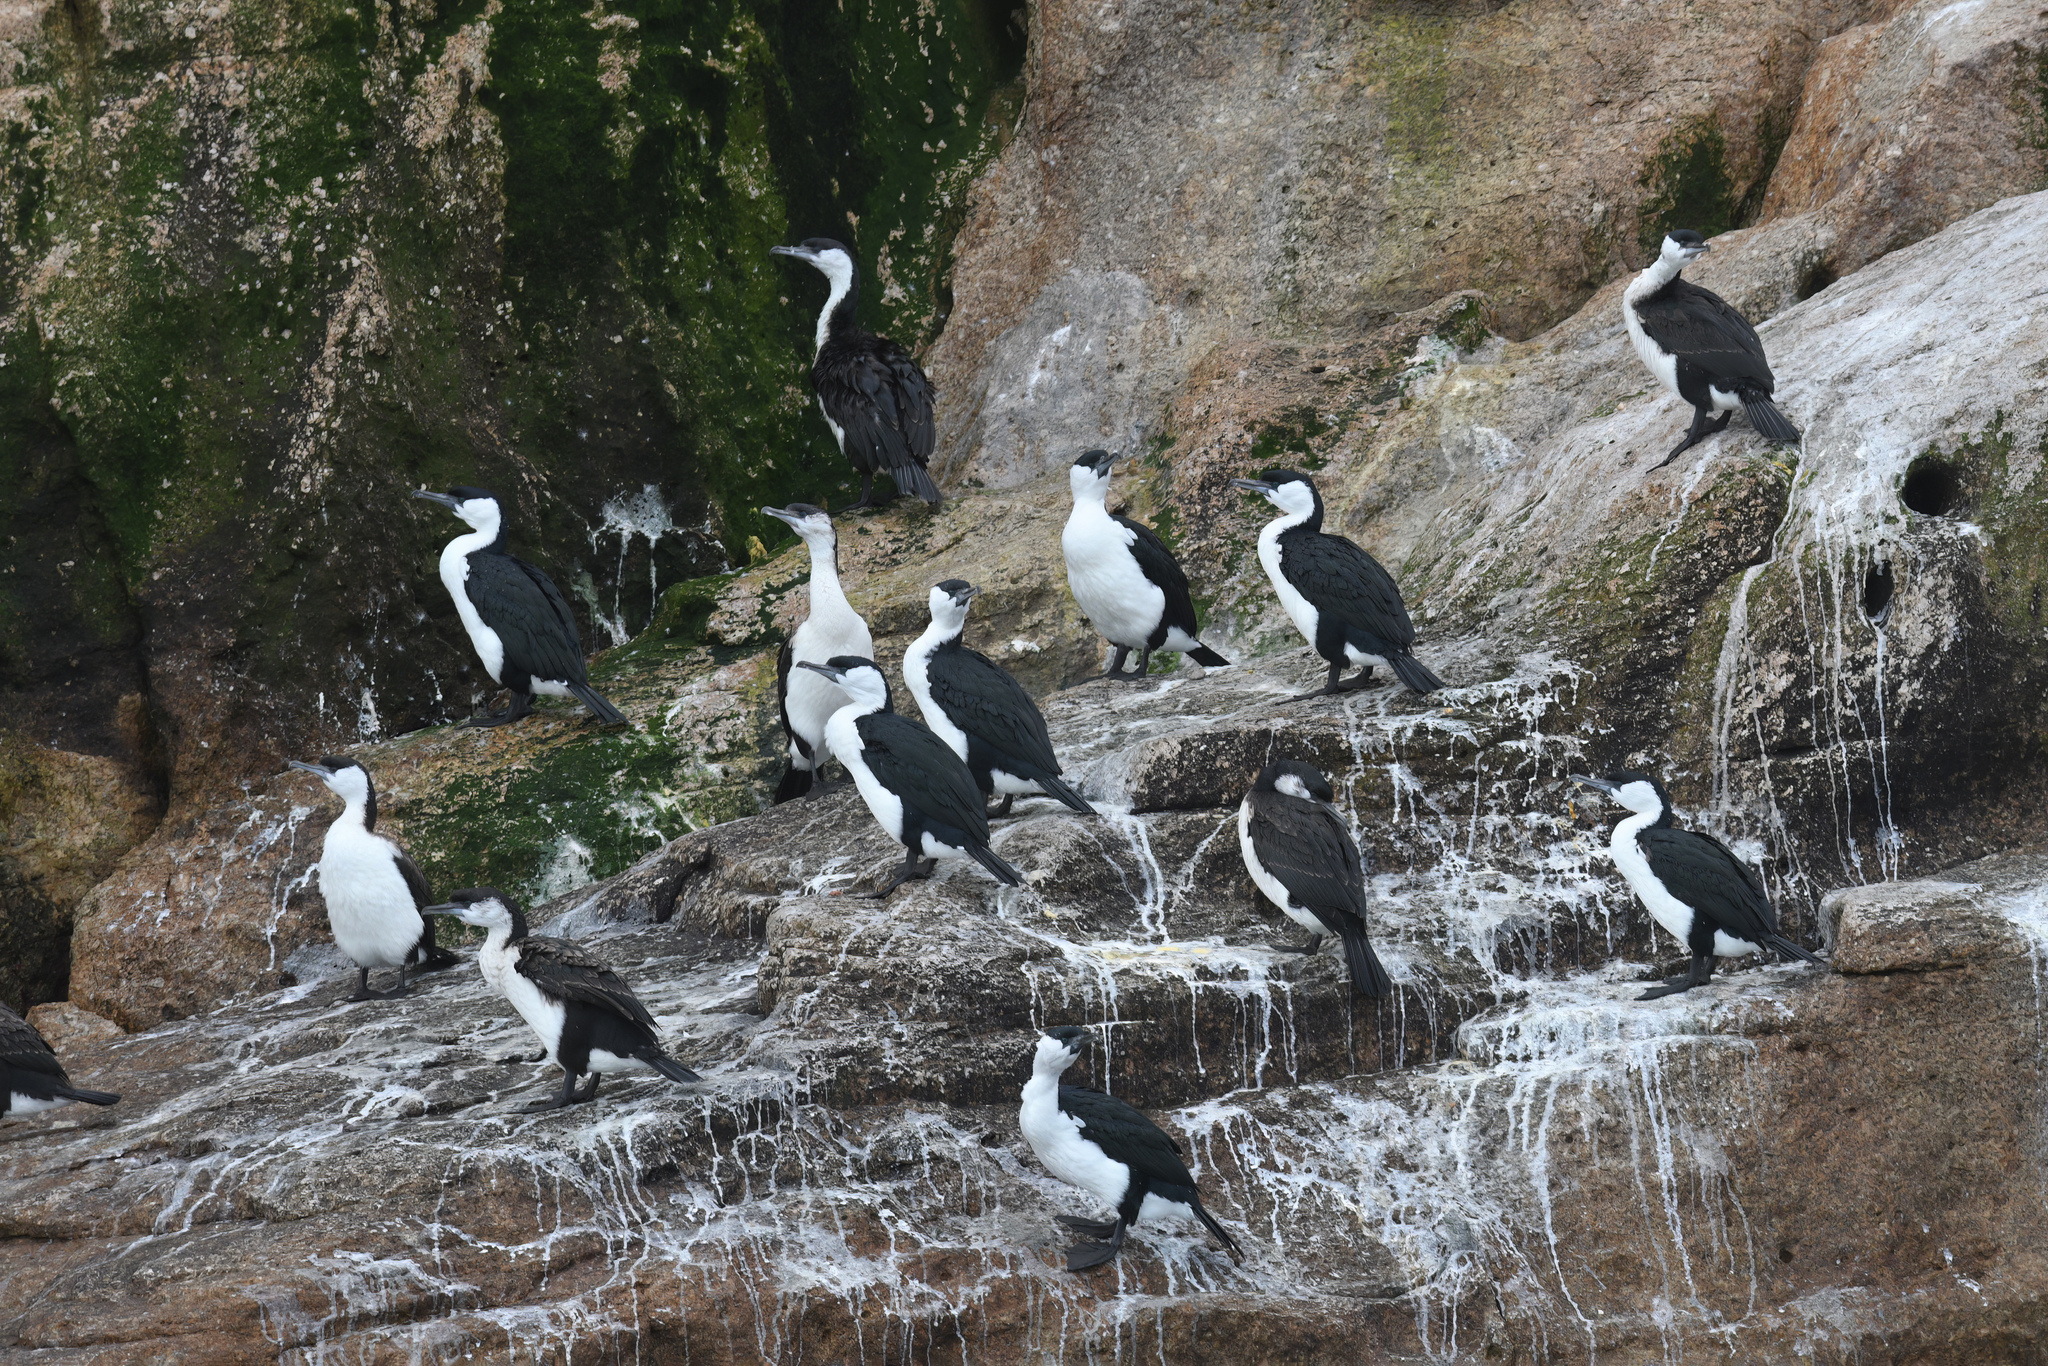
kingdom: Animalia
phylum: Chordata
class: Aves
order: Suliformes
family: Phalacrocoracidae
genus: Phalacrocorax
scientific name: Phalacrocorax fuscescens
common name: Black-faced cormorant
